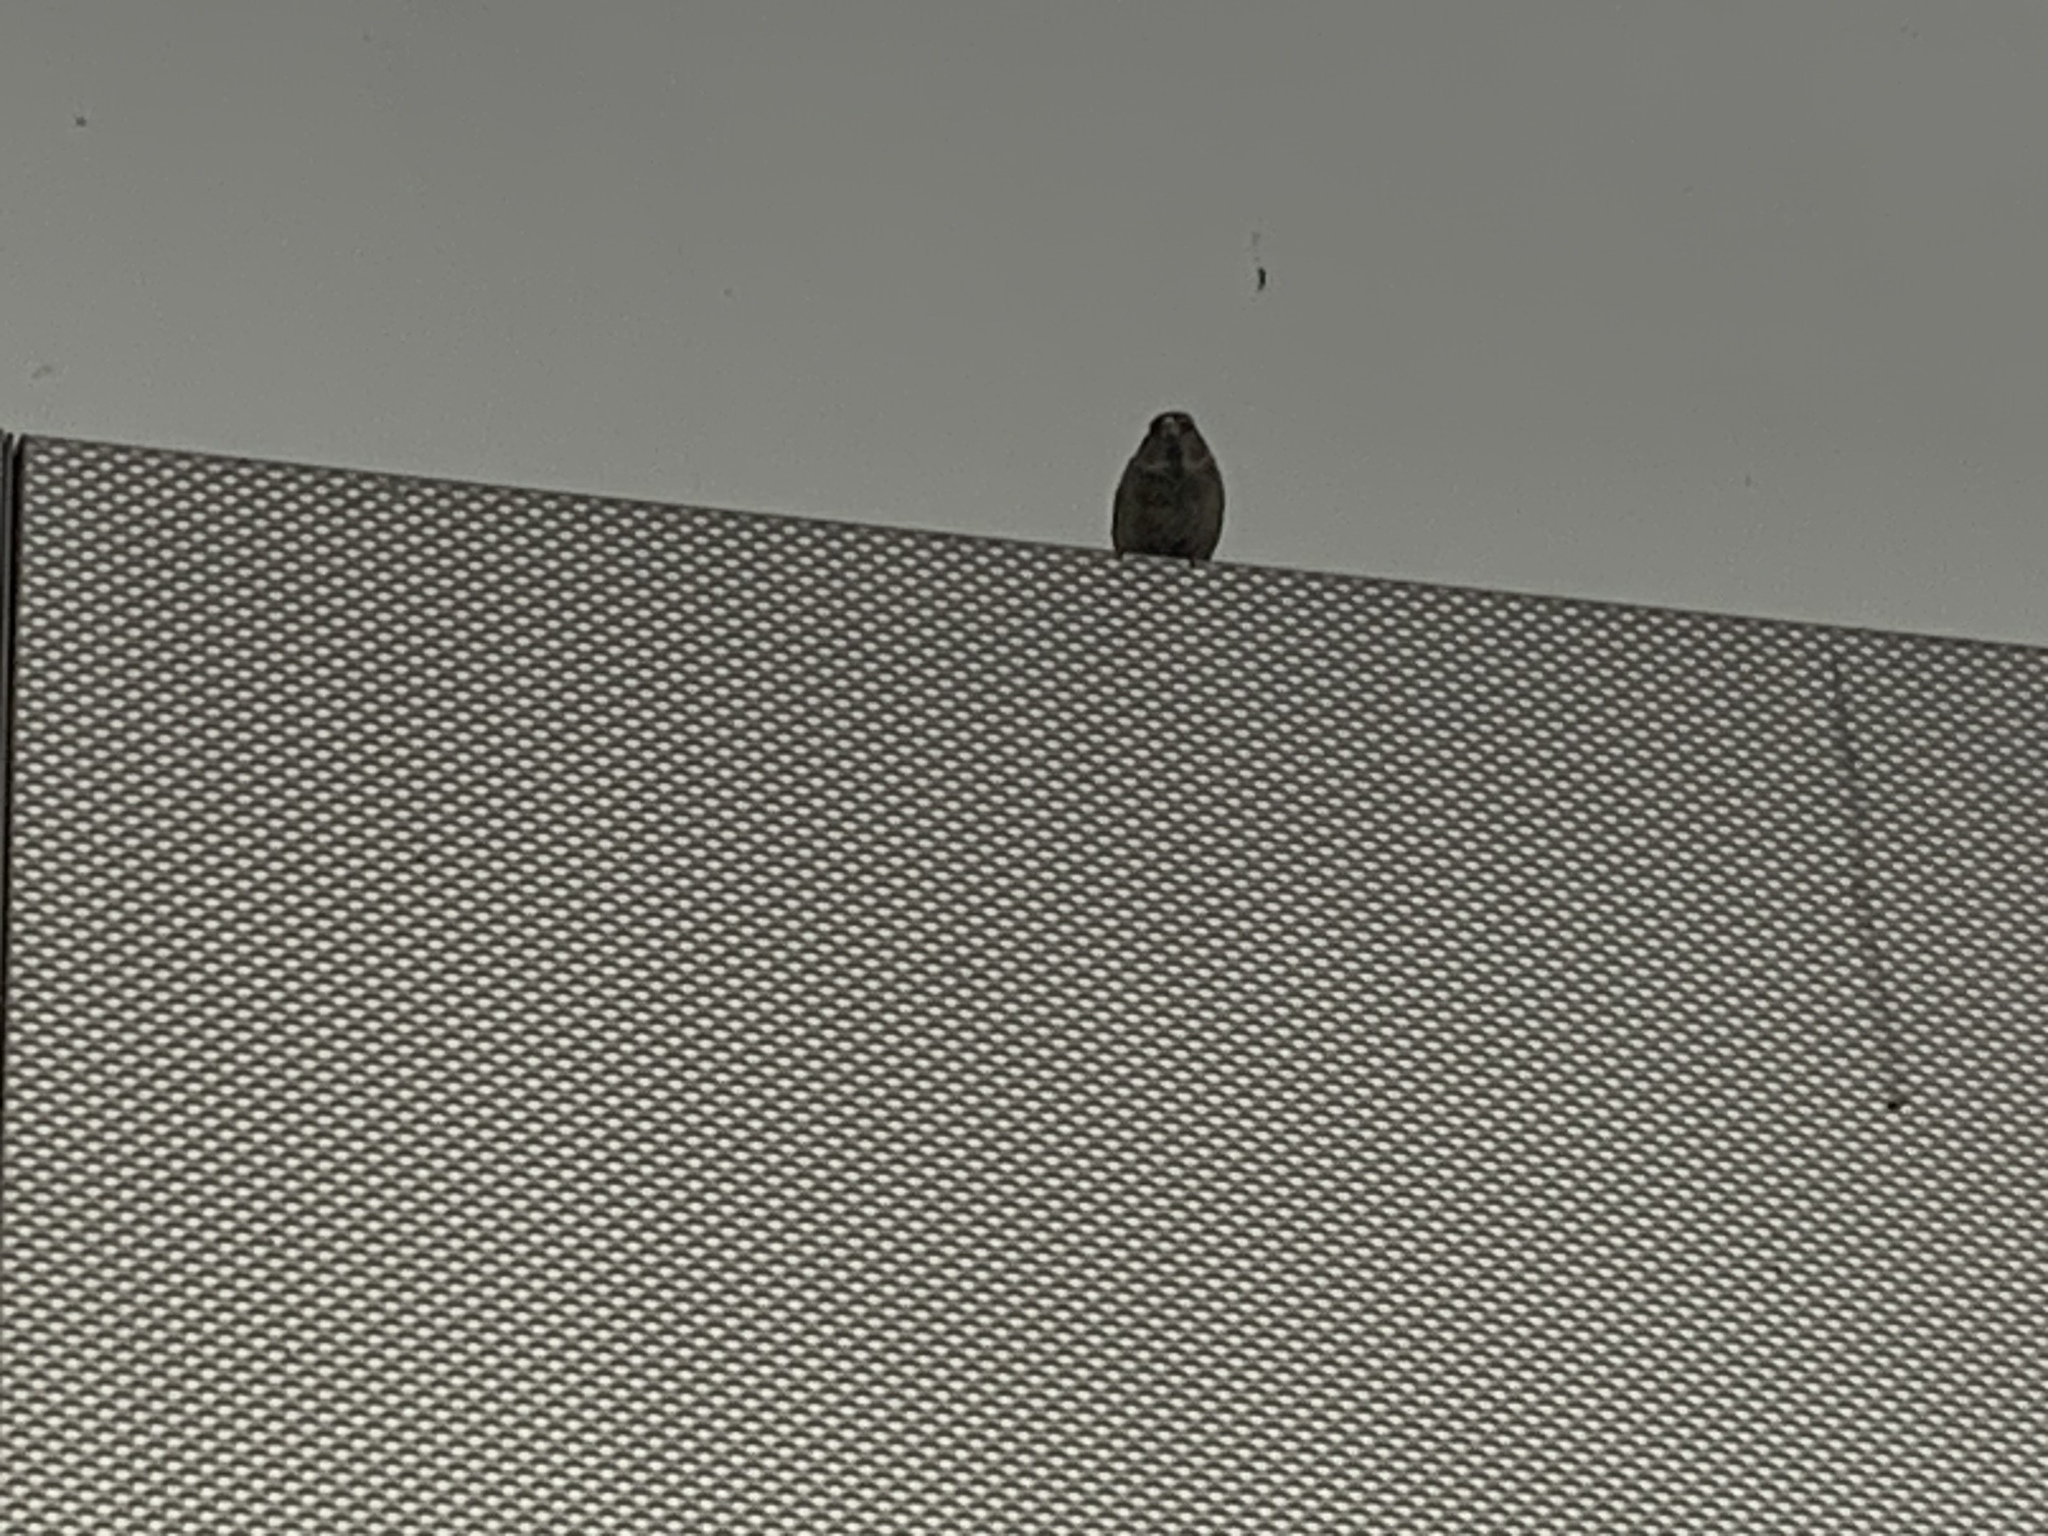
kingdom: Animalia
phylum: Chordata
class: Aves
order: Passeriformes
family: Passeridae
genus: Passer
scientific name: Passer domesticus
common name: House sparrow
